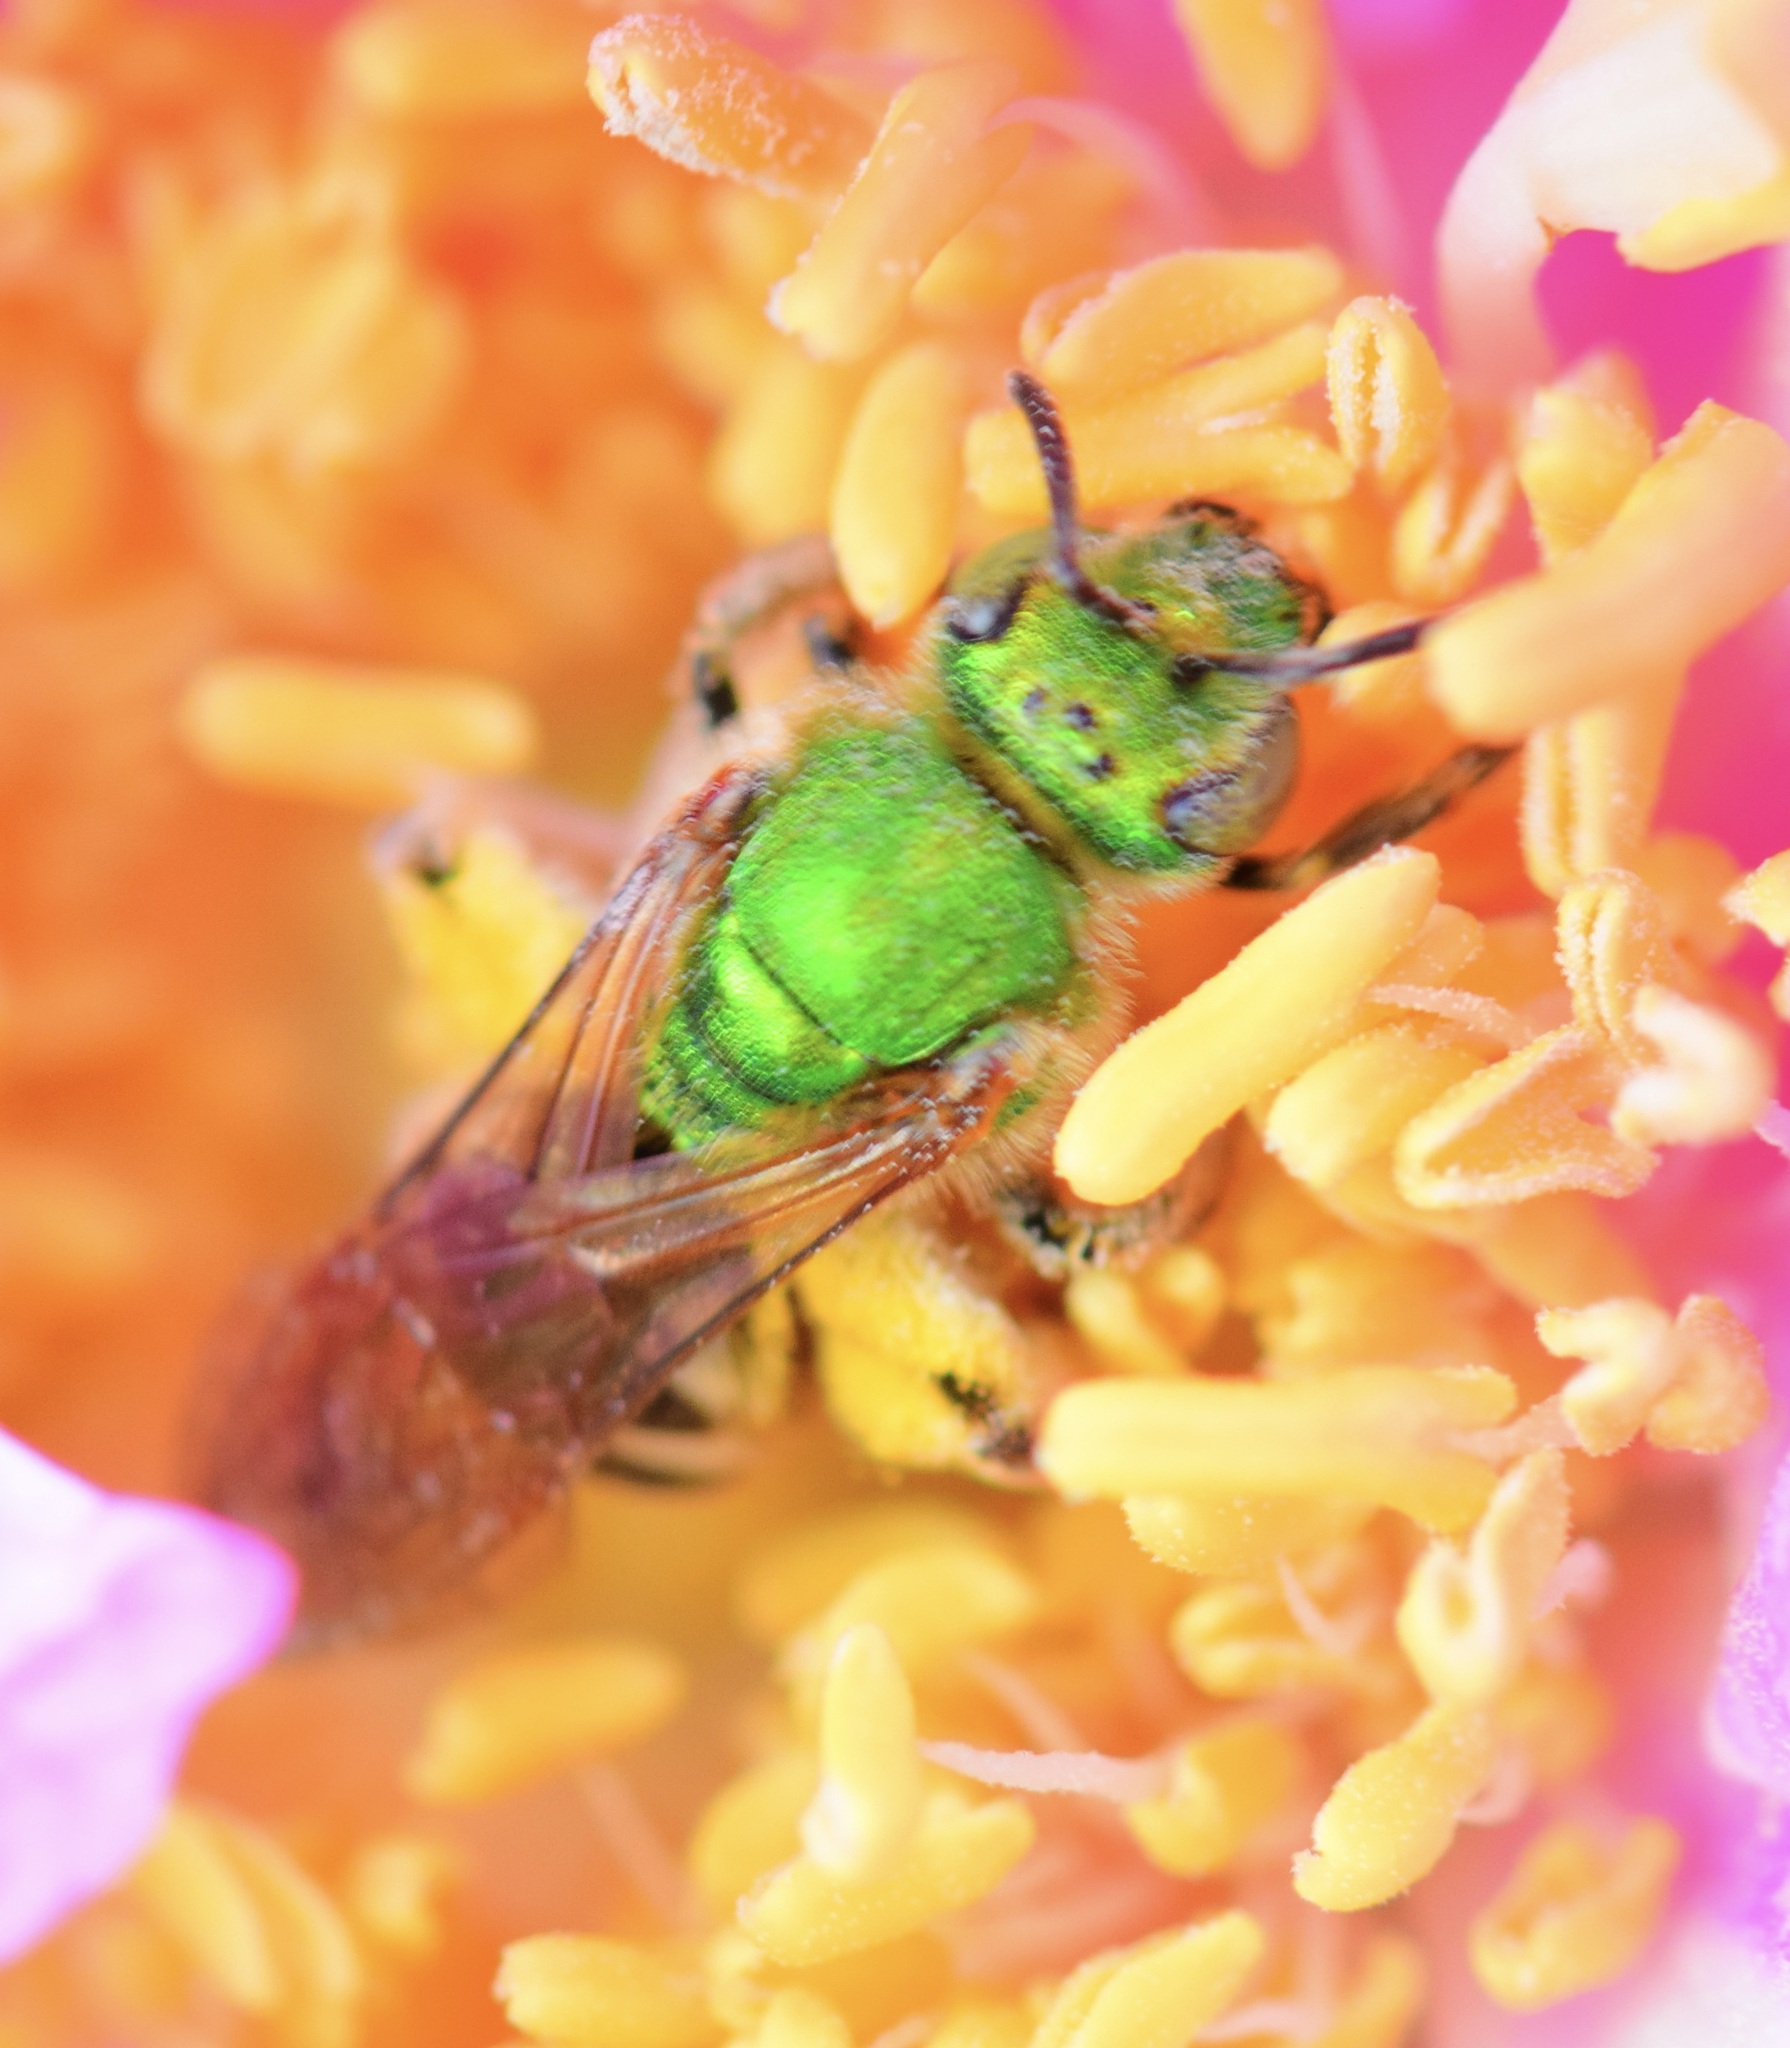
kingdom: Animalia
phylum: Arthropoda
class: Insecta
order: Hymenoptera
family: Halictidae
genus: Agapostemon
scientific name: Agapostemon virescens
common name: Bicolored striped sweat bee
